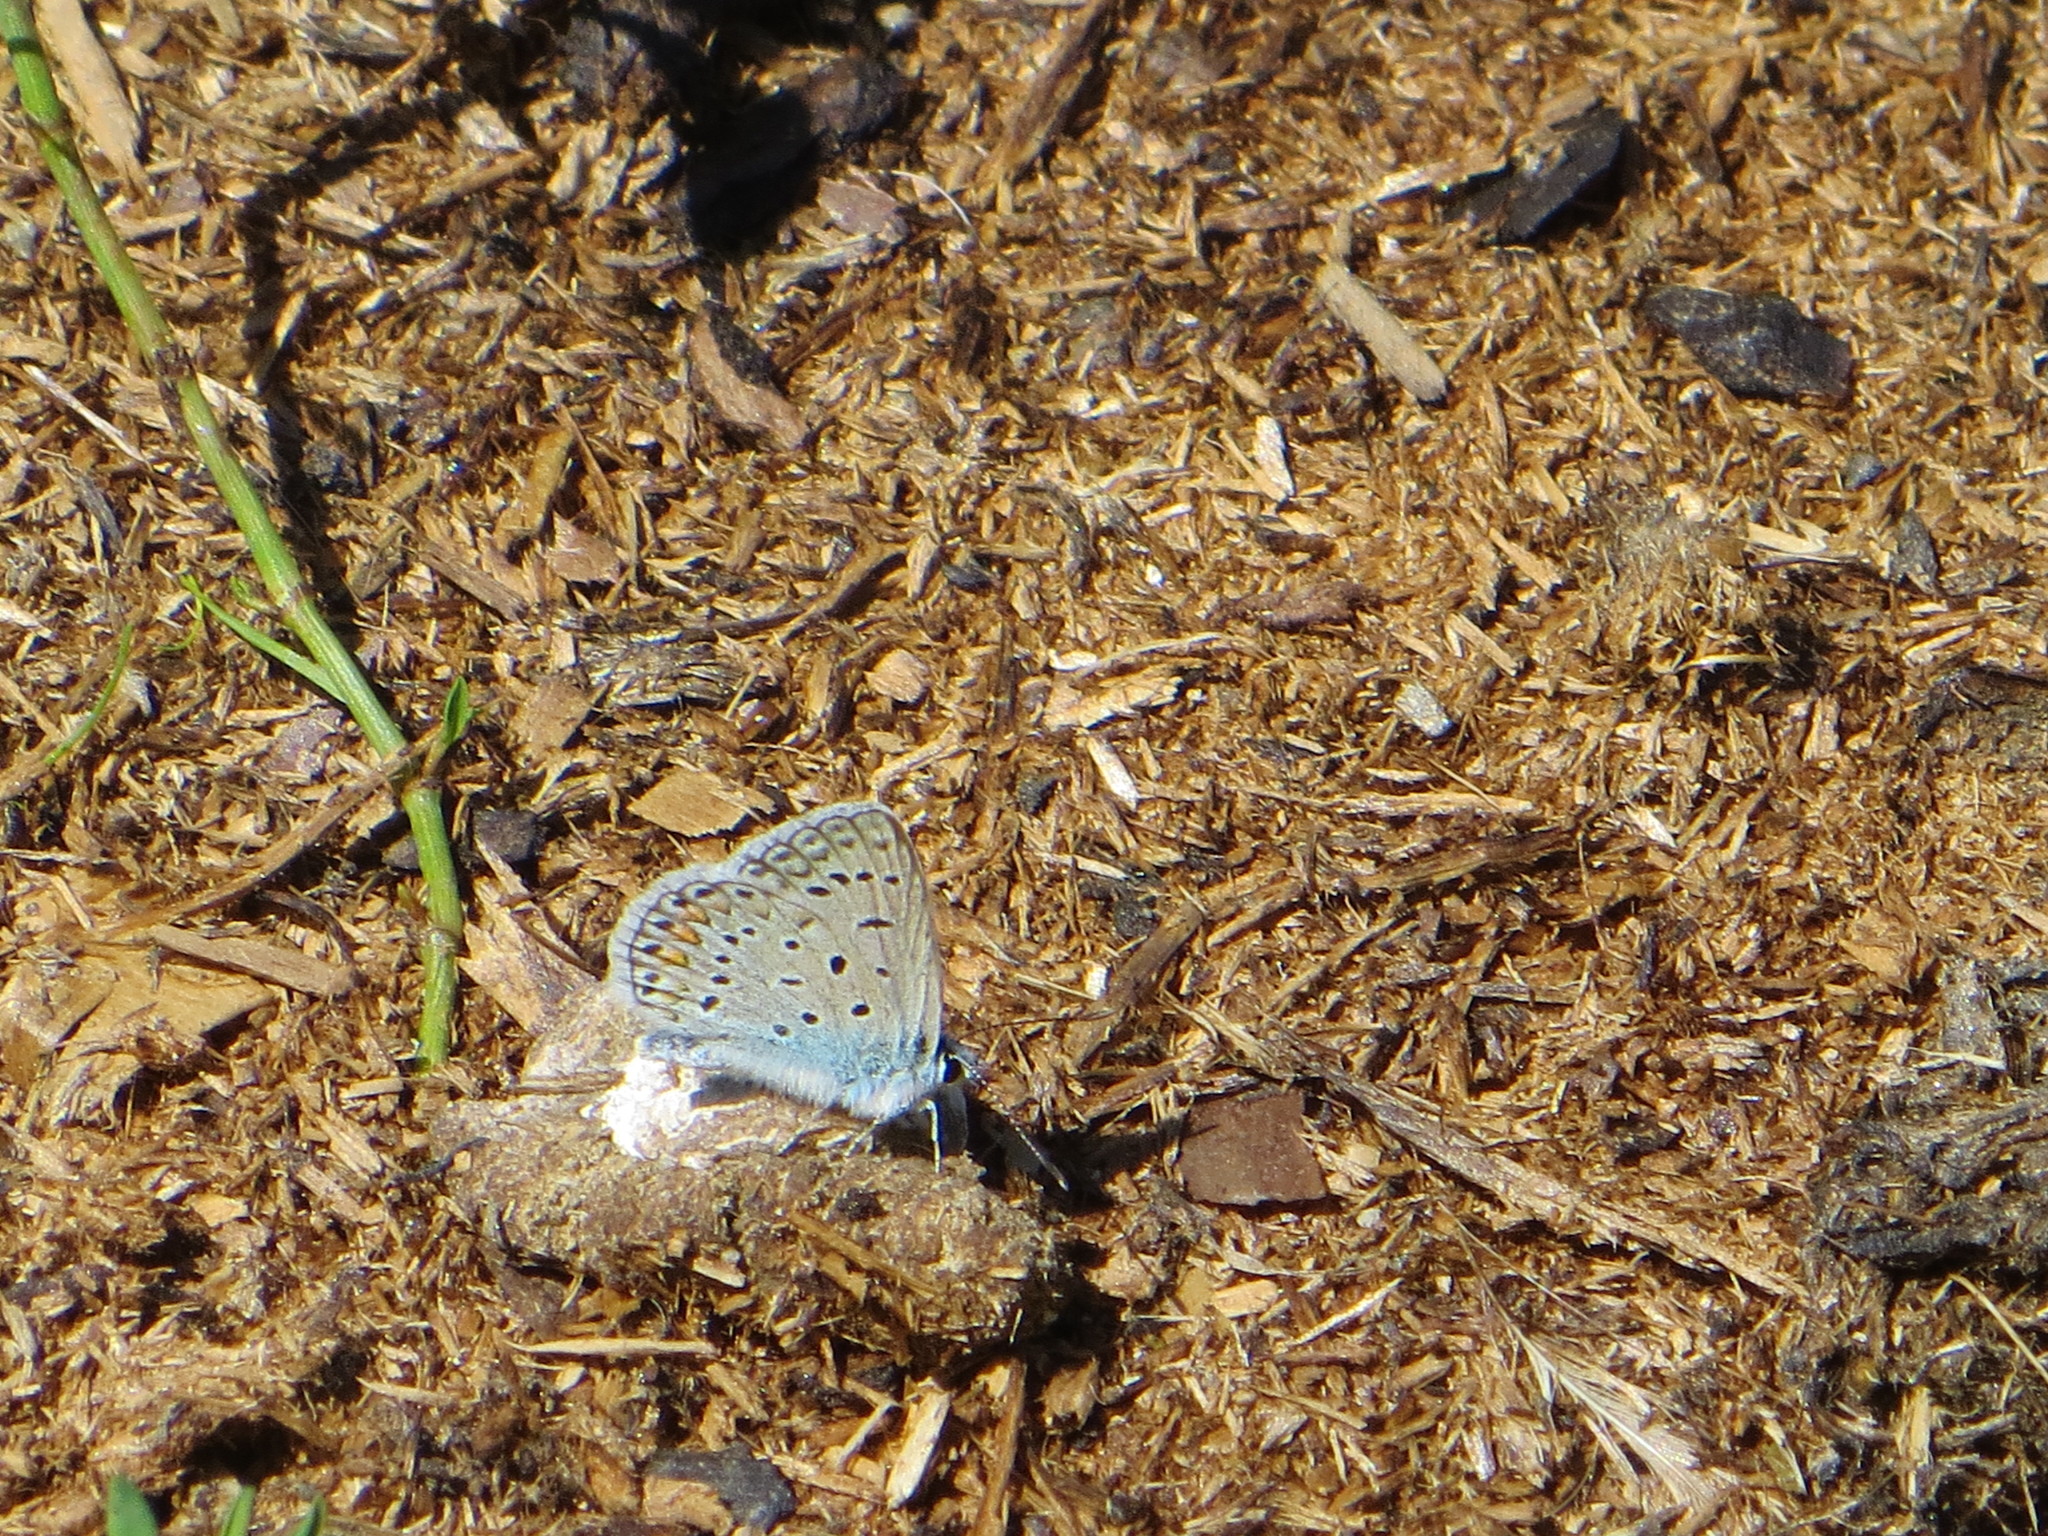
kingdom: Animalia
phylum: Arthropoda
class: Insecta
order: Lepidoptera
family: Lycaenidae
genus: Polyommatus
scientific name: Polyommatus icarus
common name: Common blue
